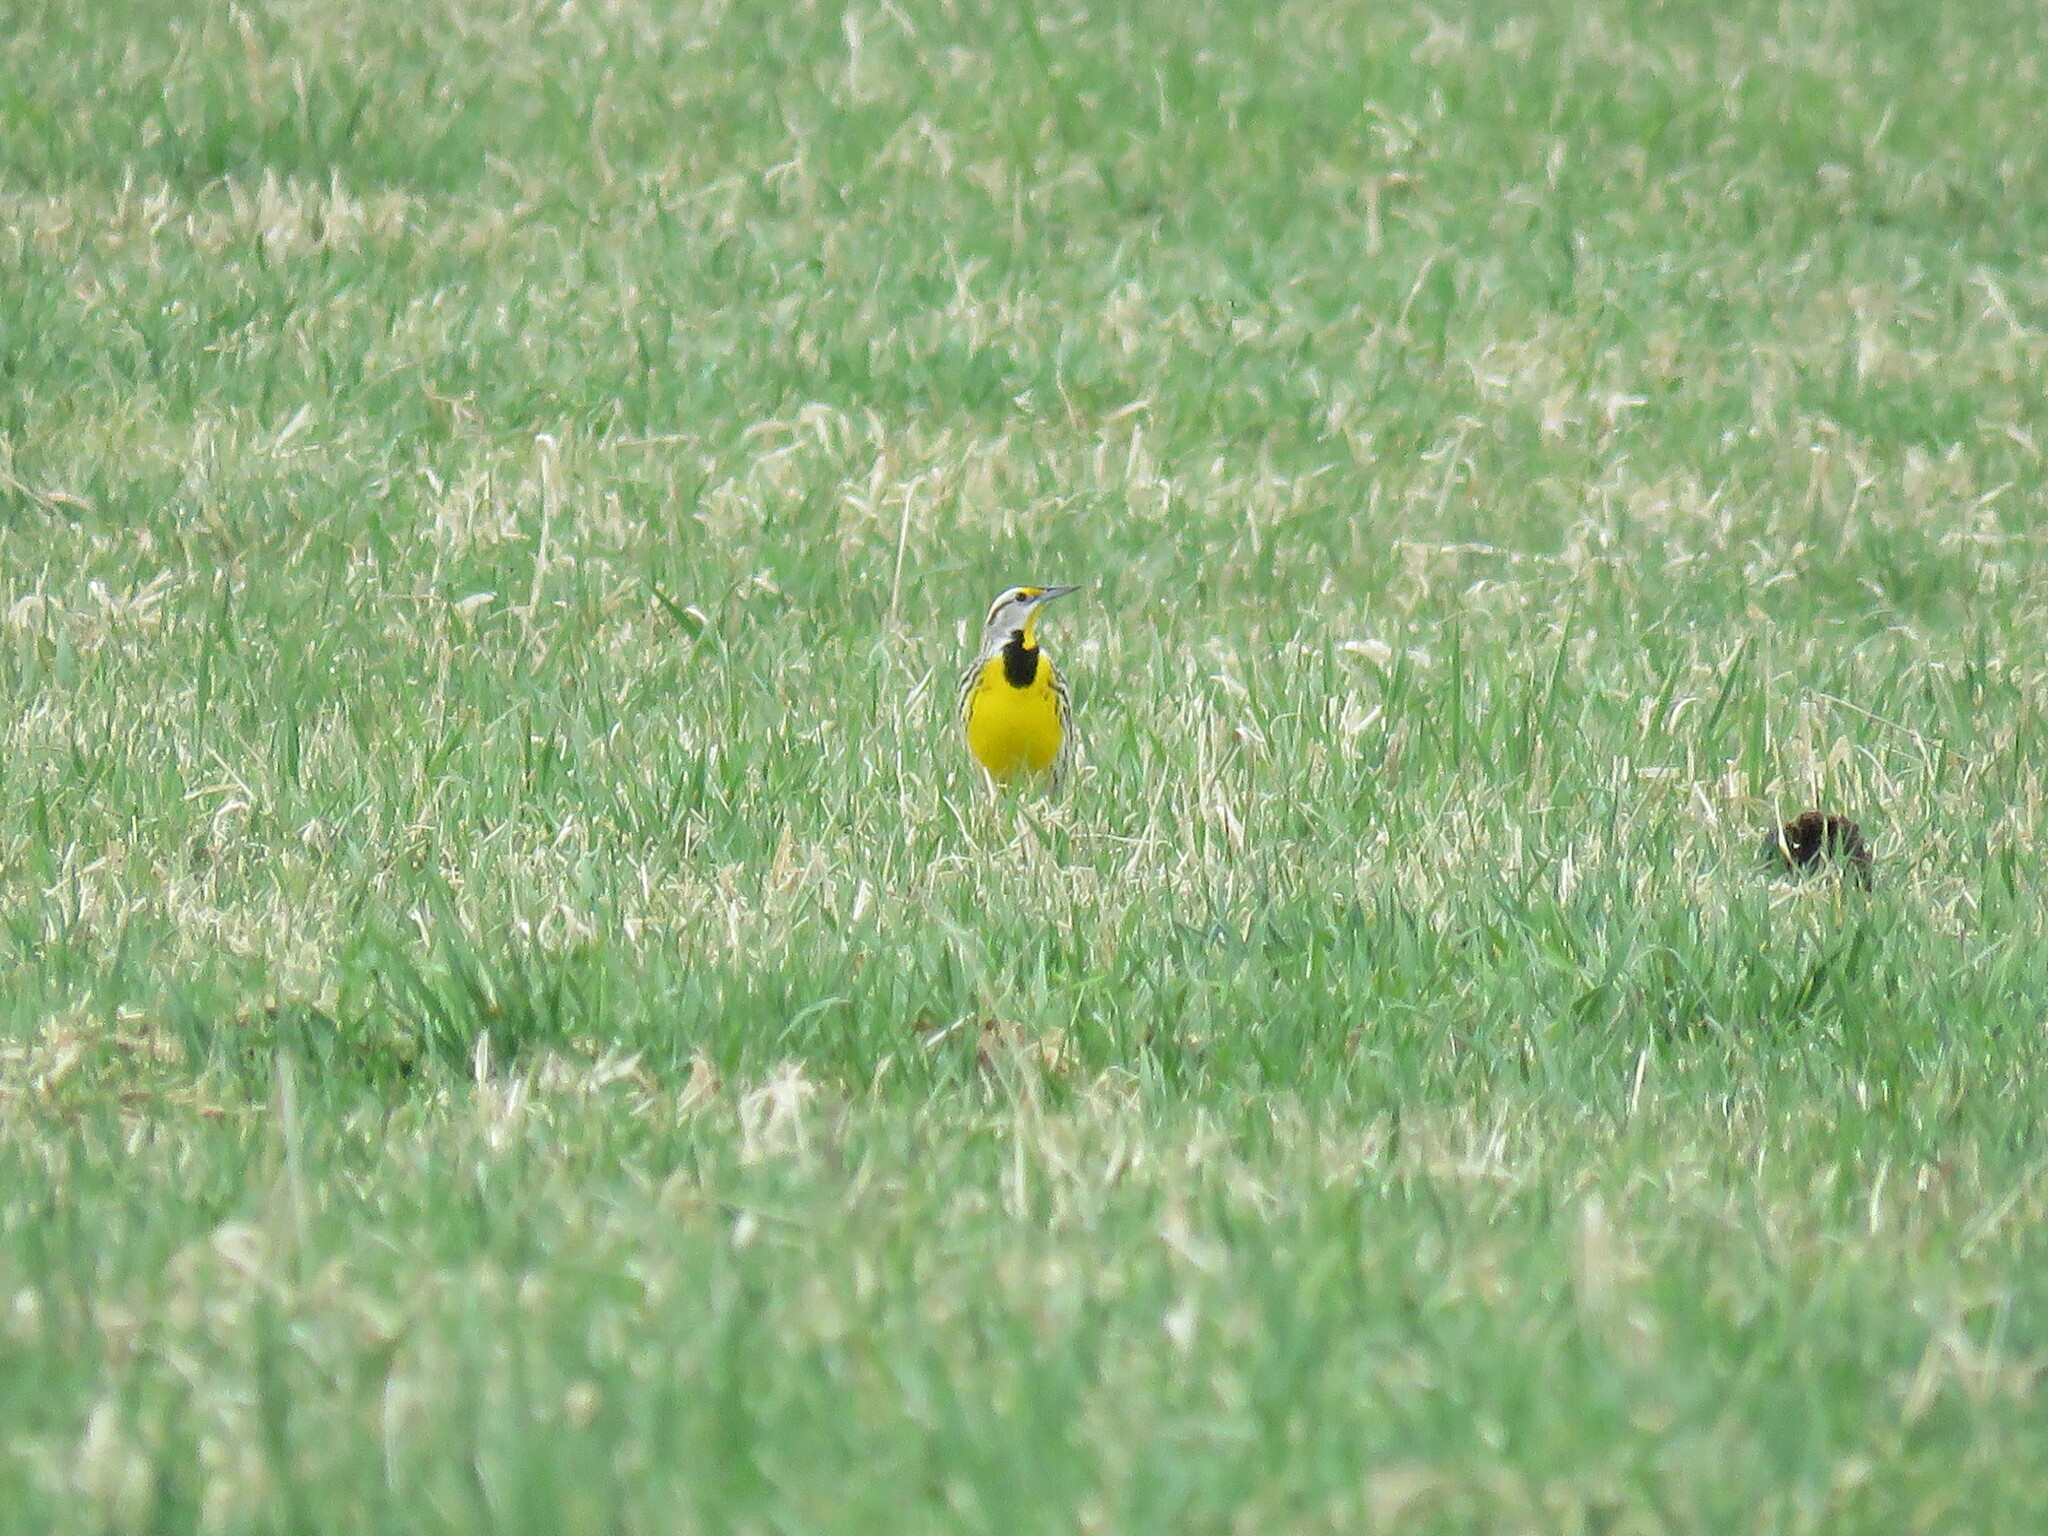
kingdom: Animalia
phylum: Chordata
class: Aves
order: Passeriformes
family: Icteridae
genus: Sturnella
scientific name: Sturnella magna
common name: Eastern meadowlark
